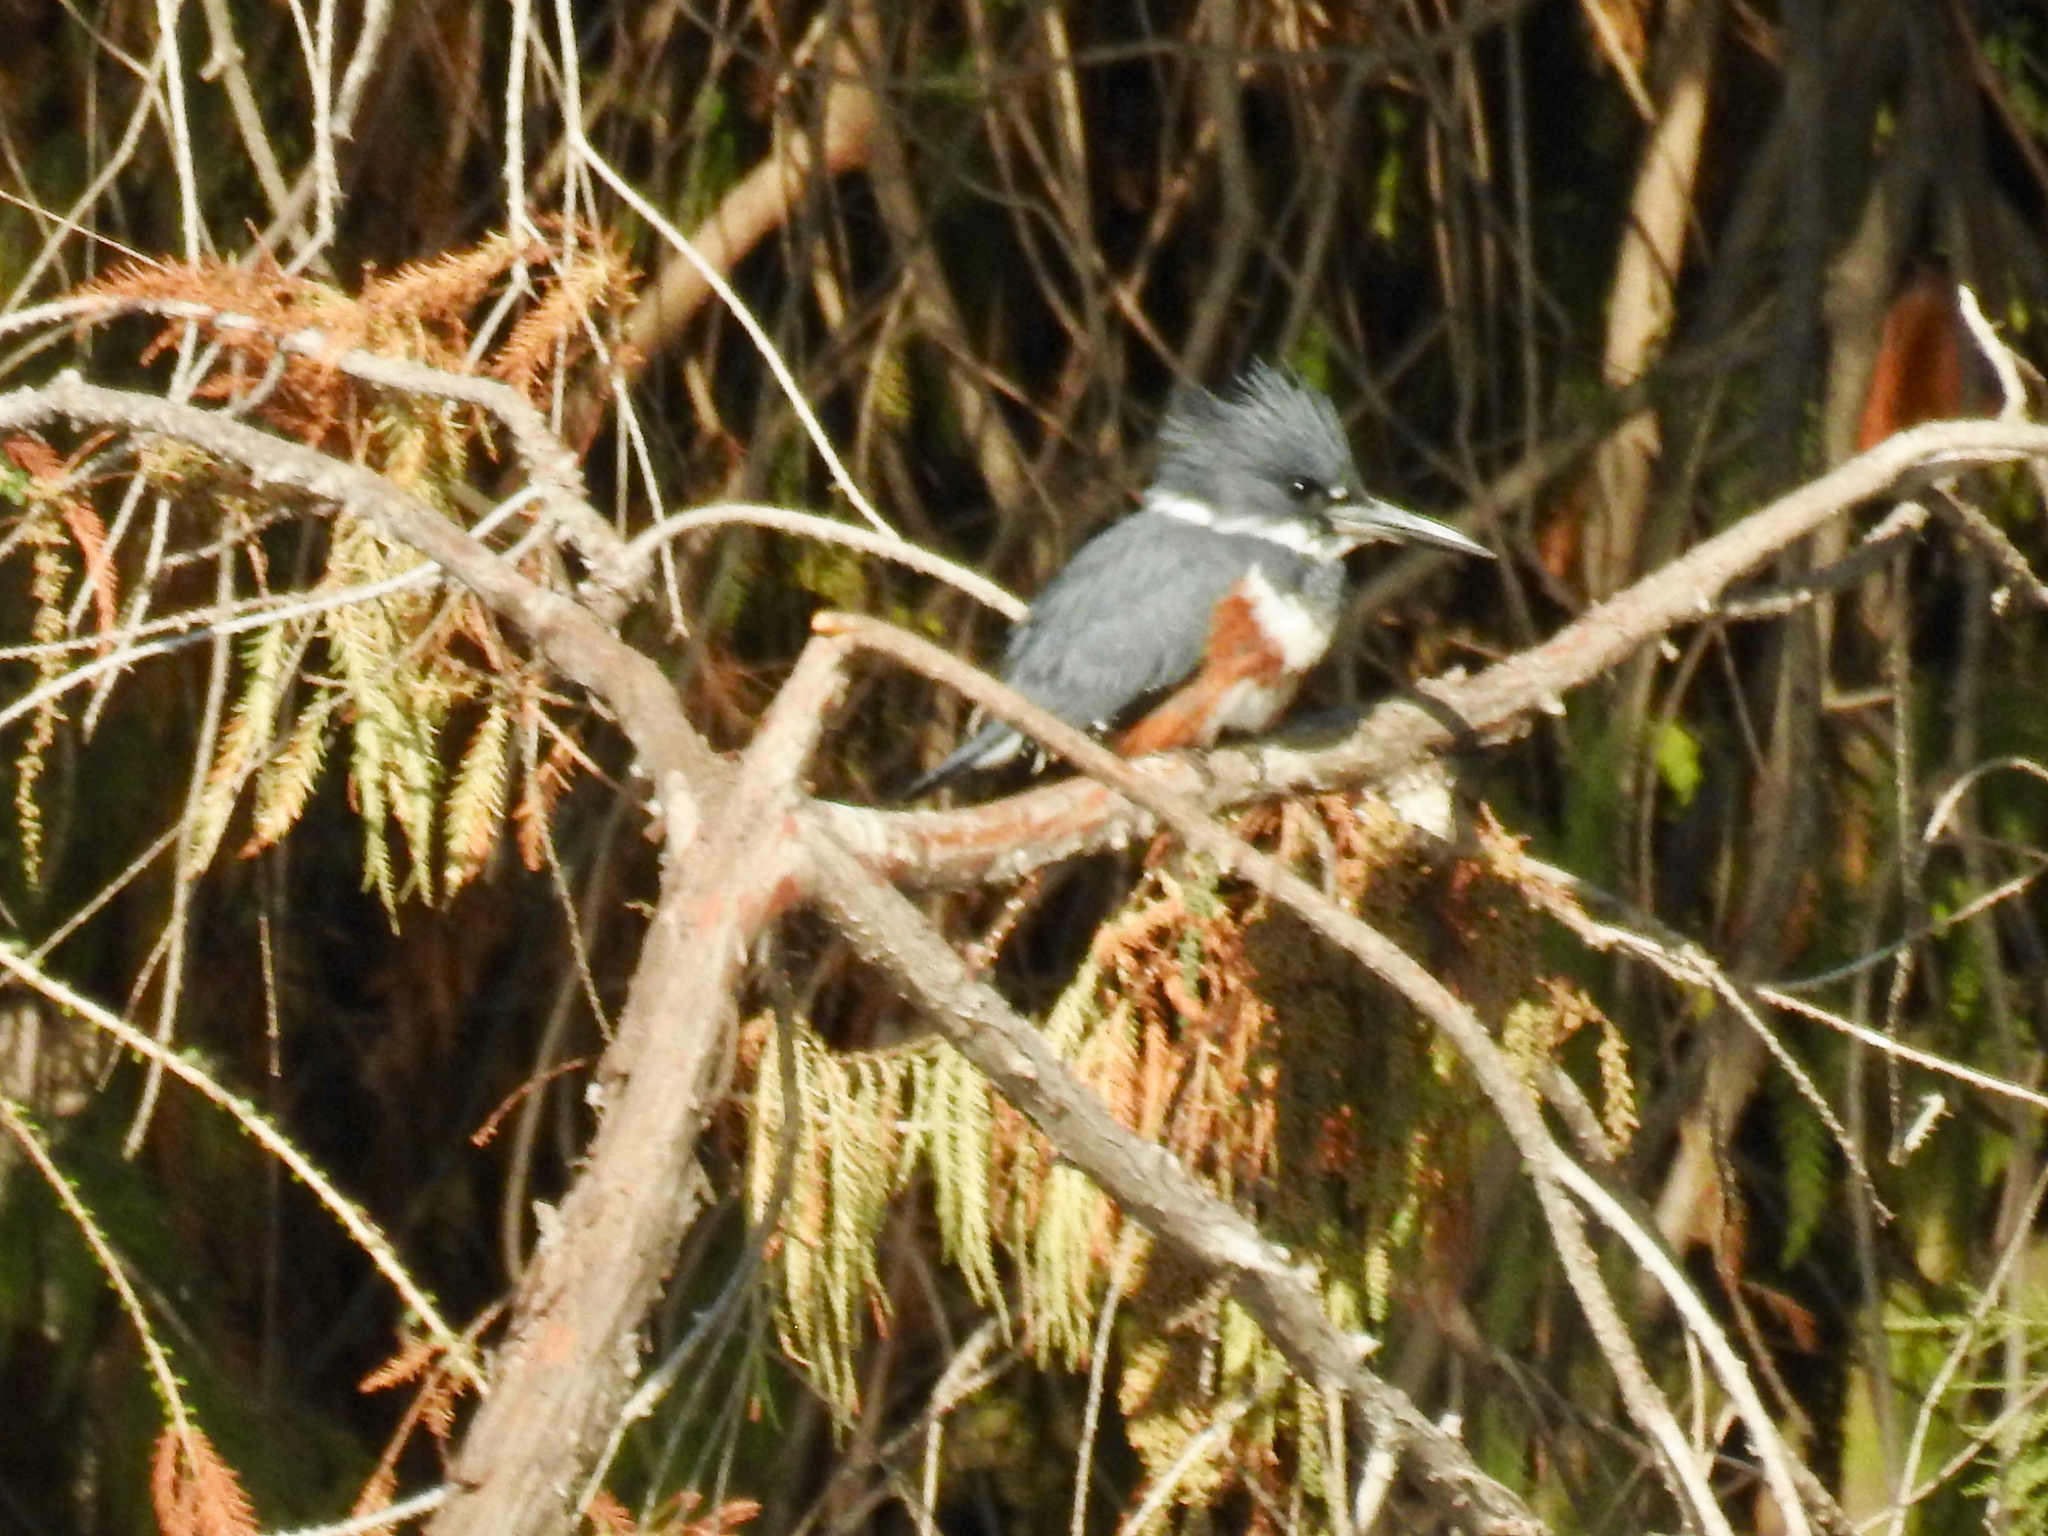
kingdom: Animalia
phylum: Chordata
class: Aves
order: Coraciiformes
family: Alcedinidae
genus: Megaceryle
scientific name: Megaceryle alcyon
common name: Belted kingfisher
